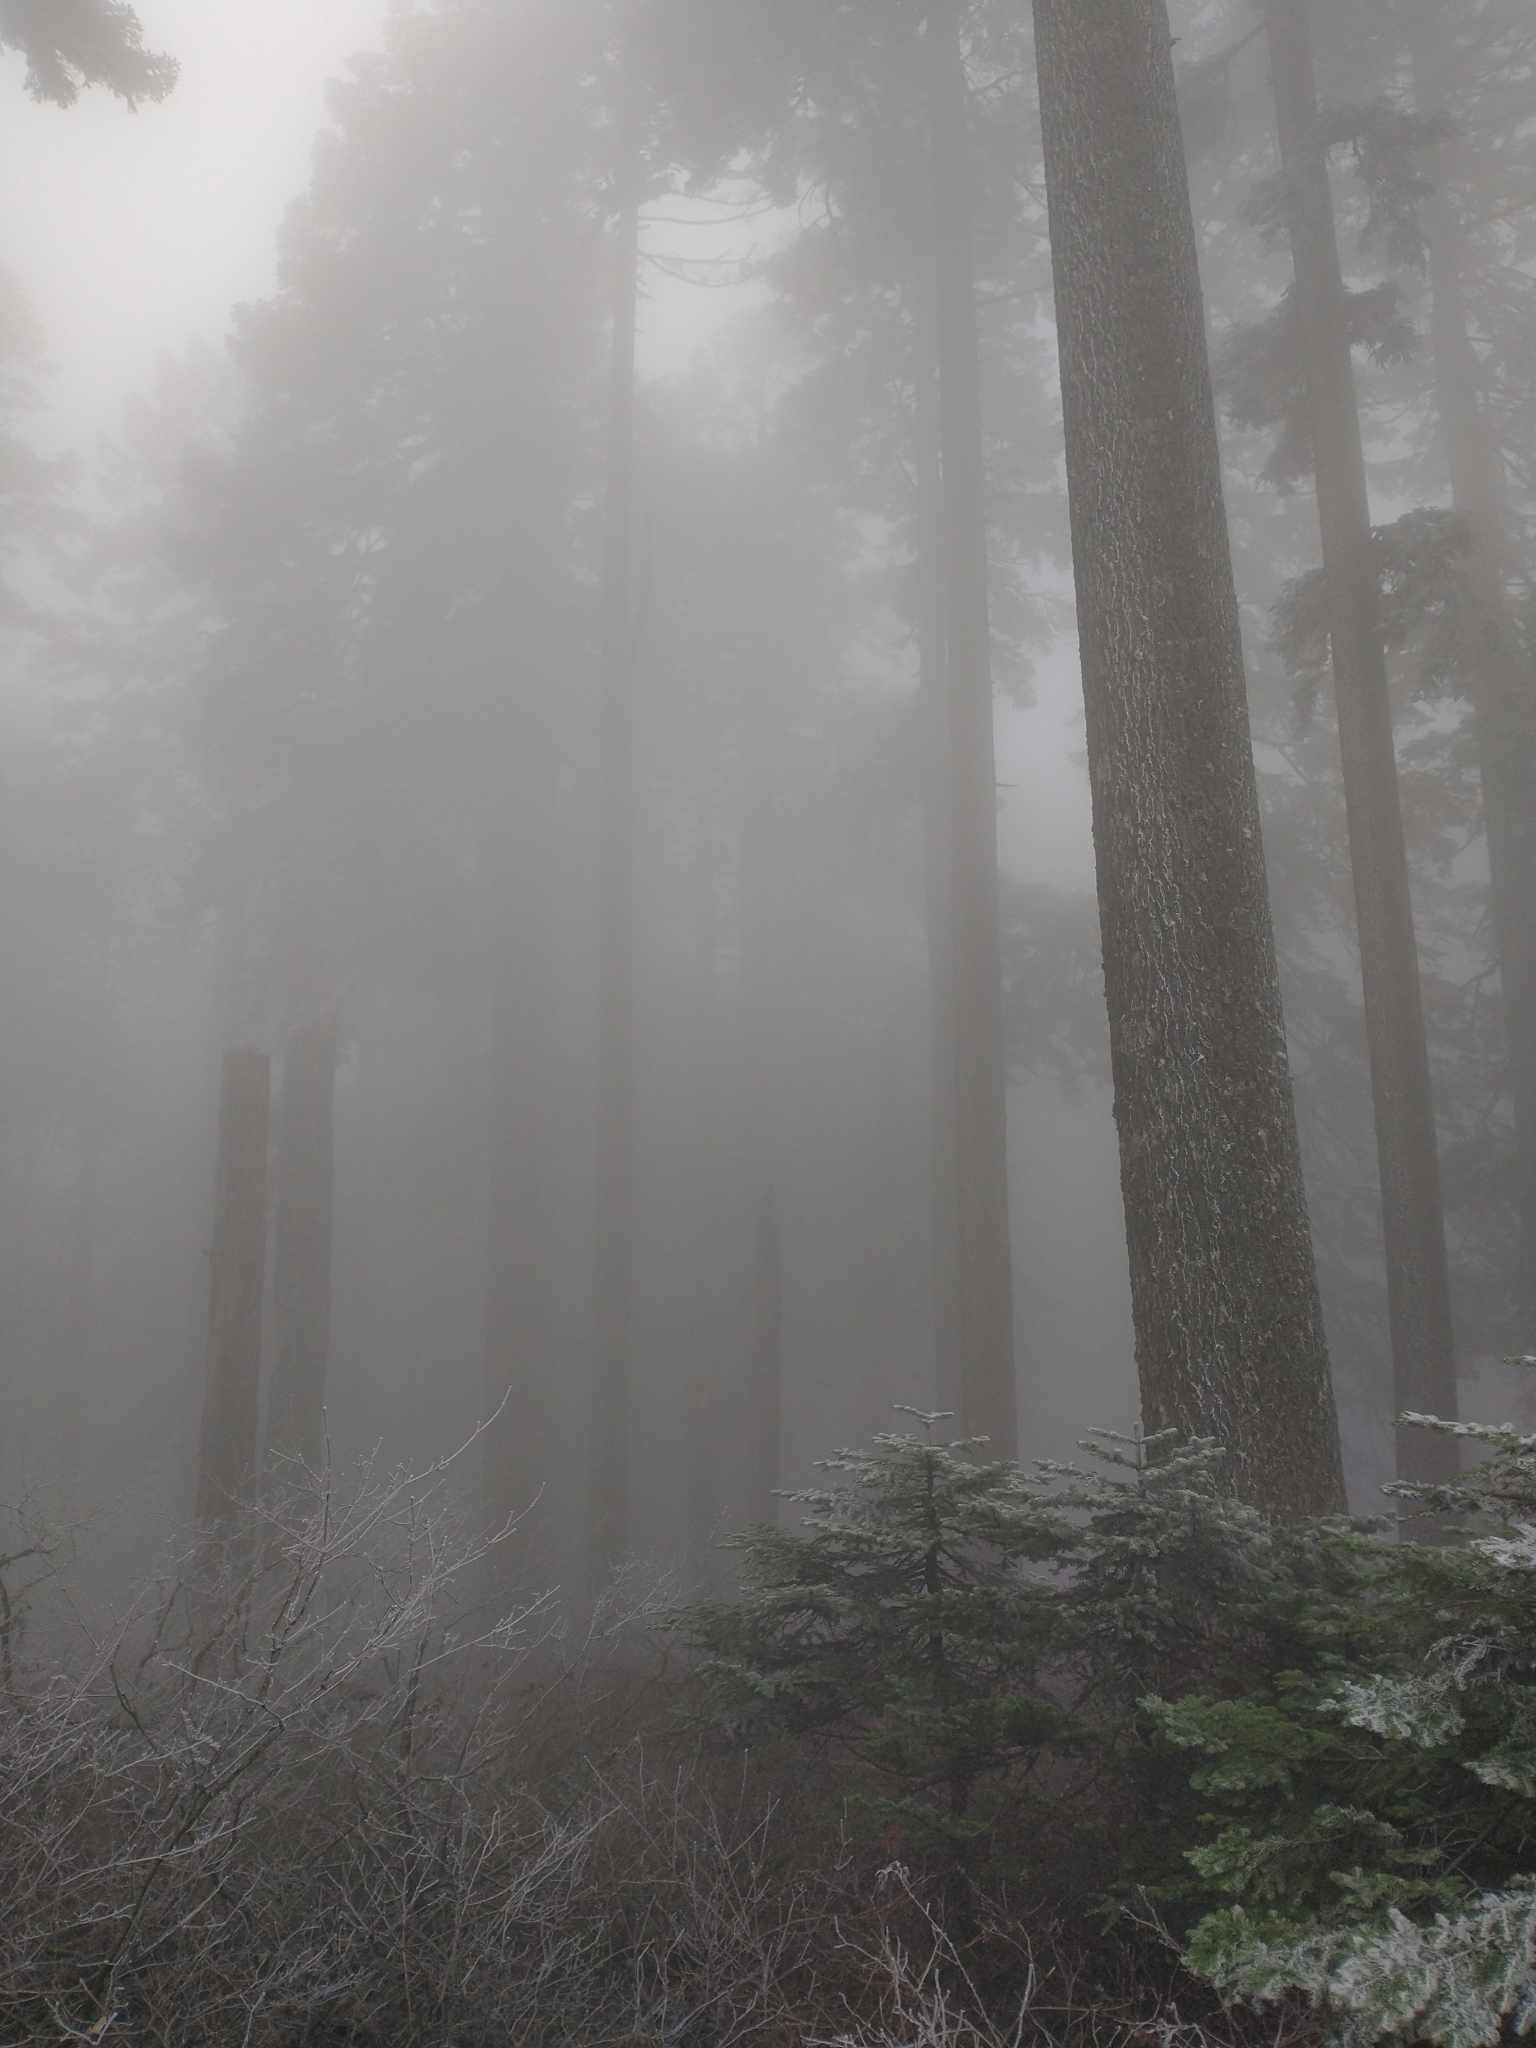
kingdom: Plantae
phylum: Tracheophyta
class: Pinopsida
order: Pinales
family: Pinaceae
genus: Abies
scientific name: Abies procera
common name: Noble fir
